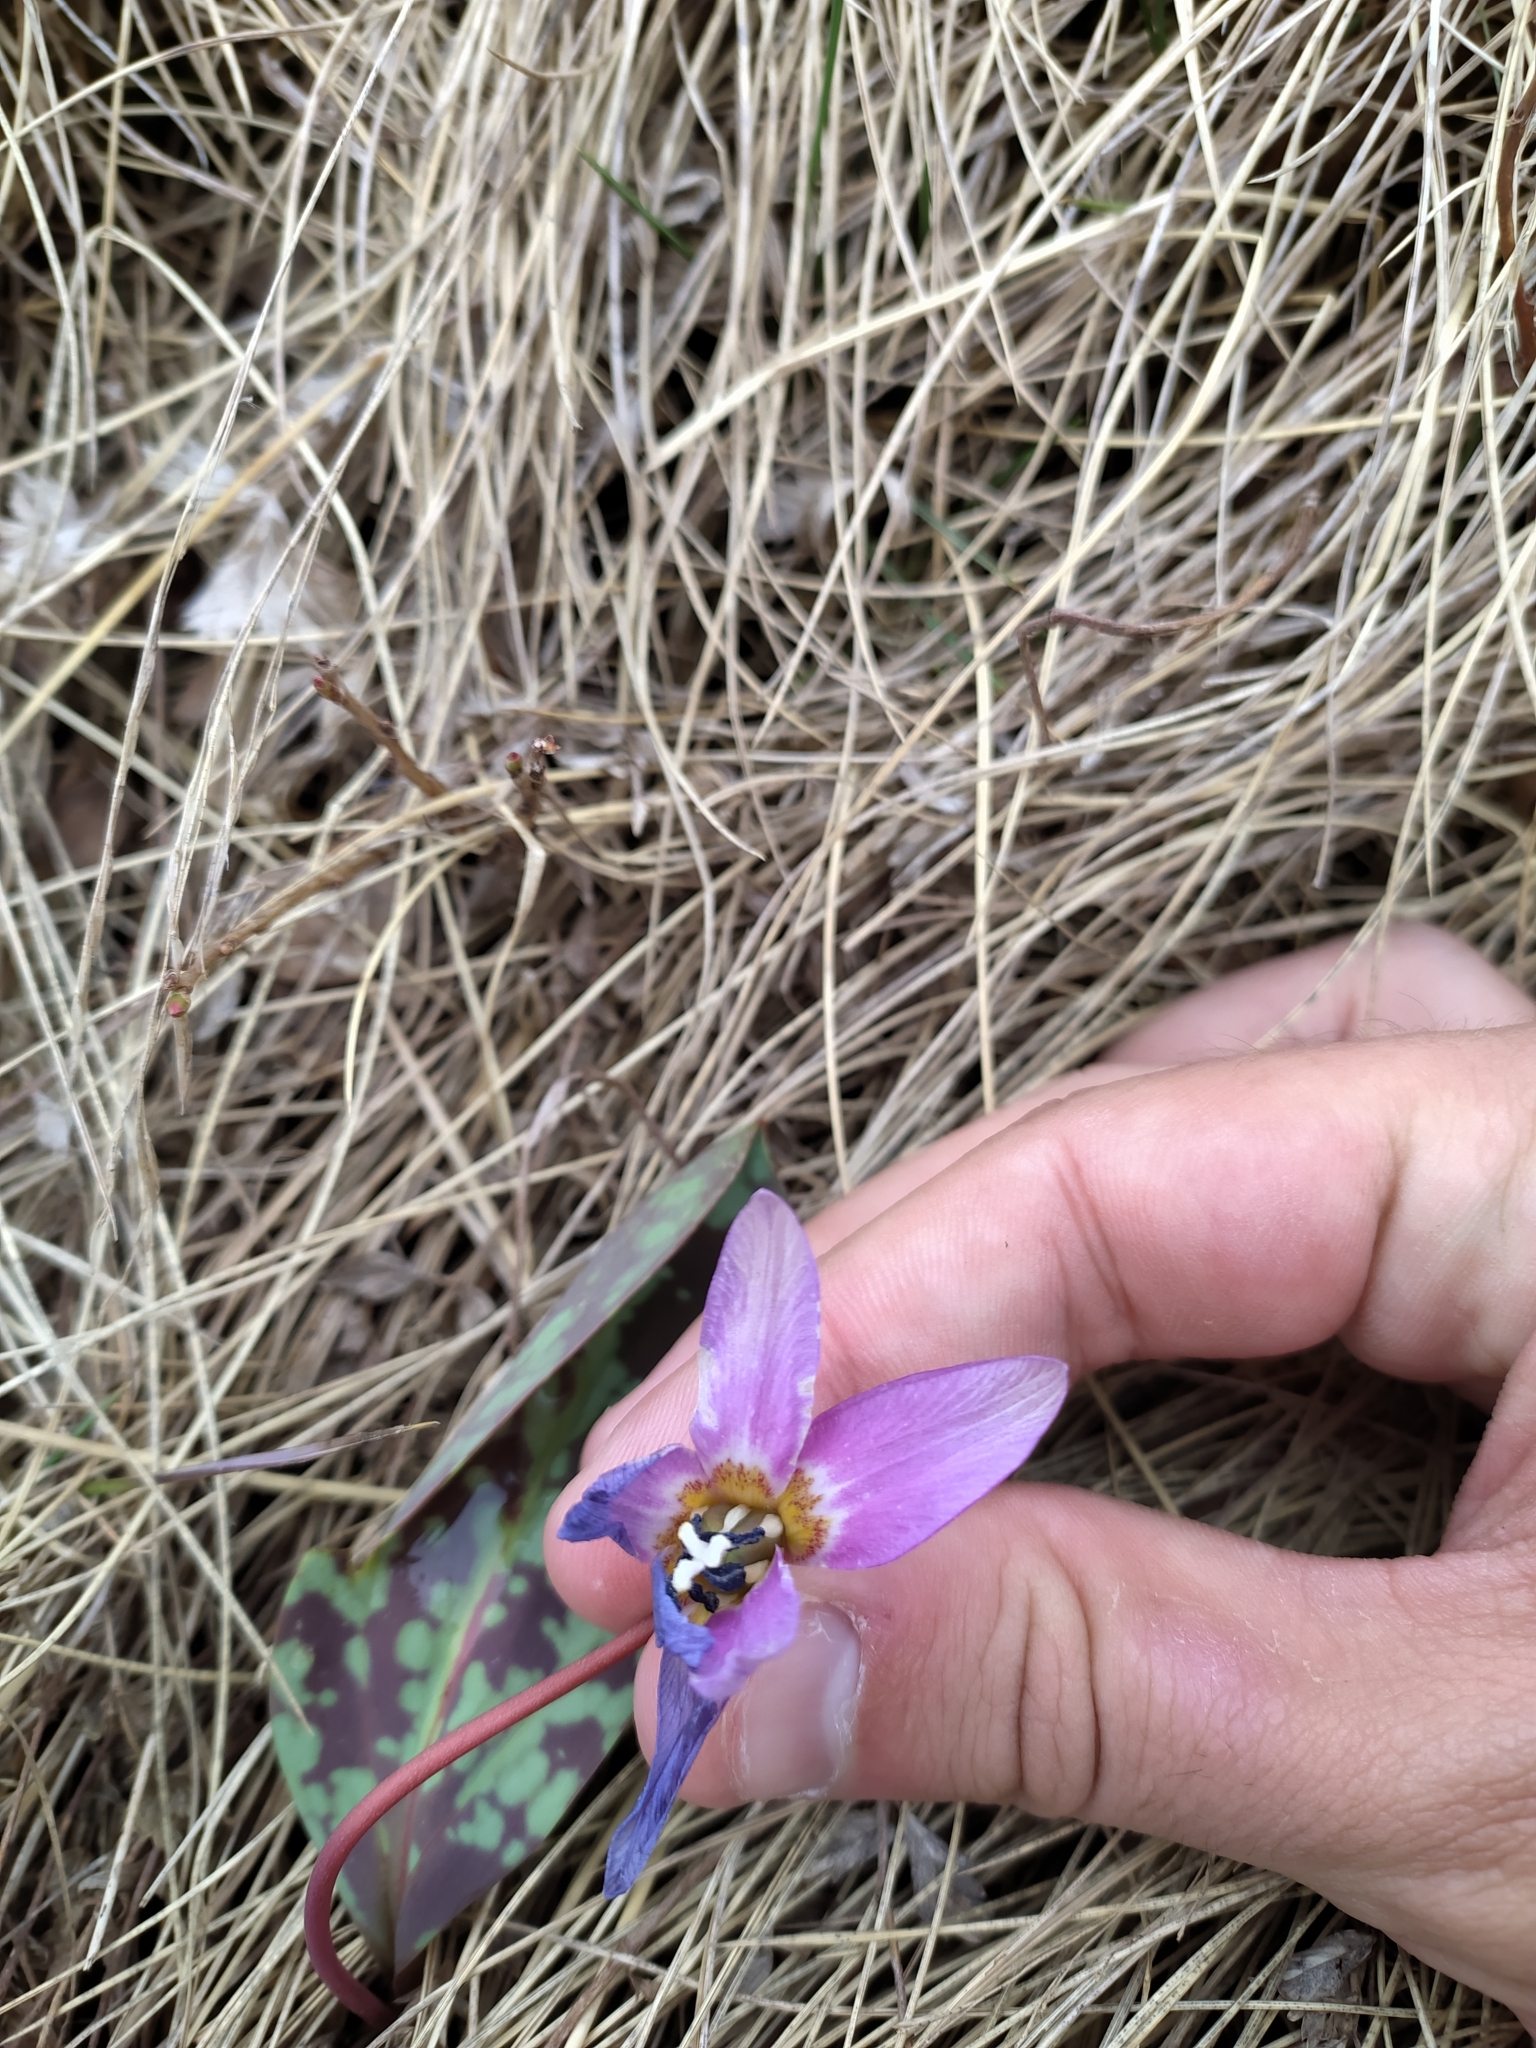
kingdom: Plantae
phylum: Tracheophyta
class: Liliopsida
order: Liliales
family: Liliaceae
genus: Erythronium
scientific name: Erythronium dens-canis
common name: Dog's-tooth-violet
